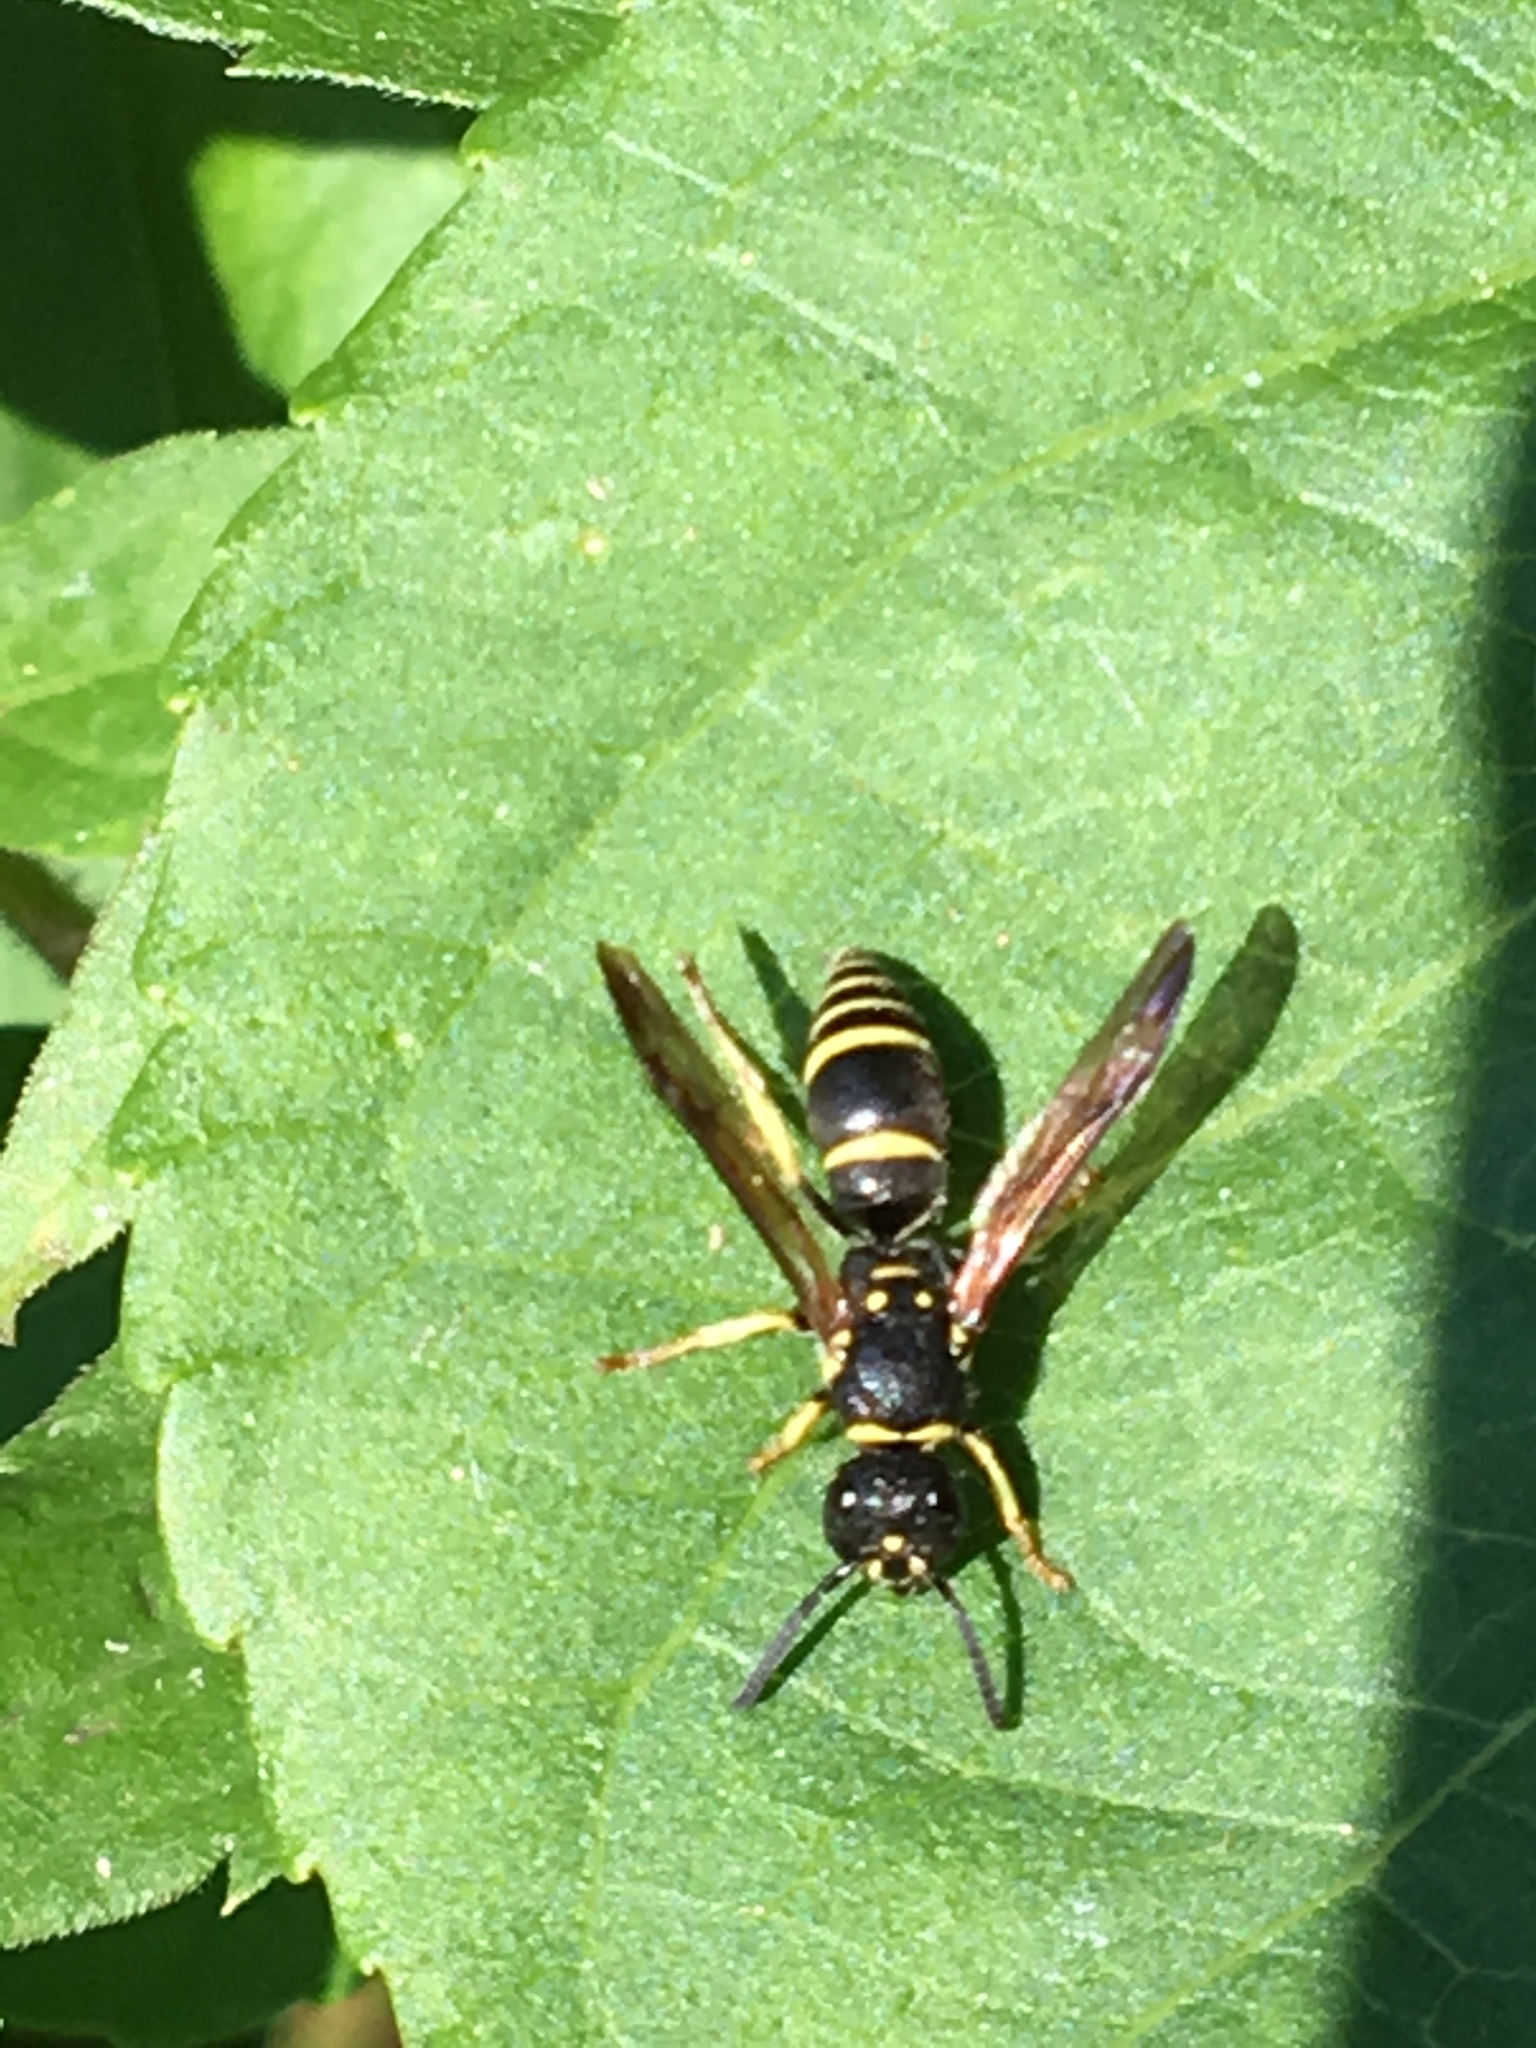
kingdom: Animalia
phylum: Arthropoda
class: Insecta
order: Hymenoptera
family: Vespidae
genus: Ancistrocerus
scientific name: Ancistrocerus adiabatus
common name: Bramble mason wasp
